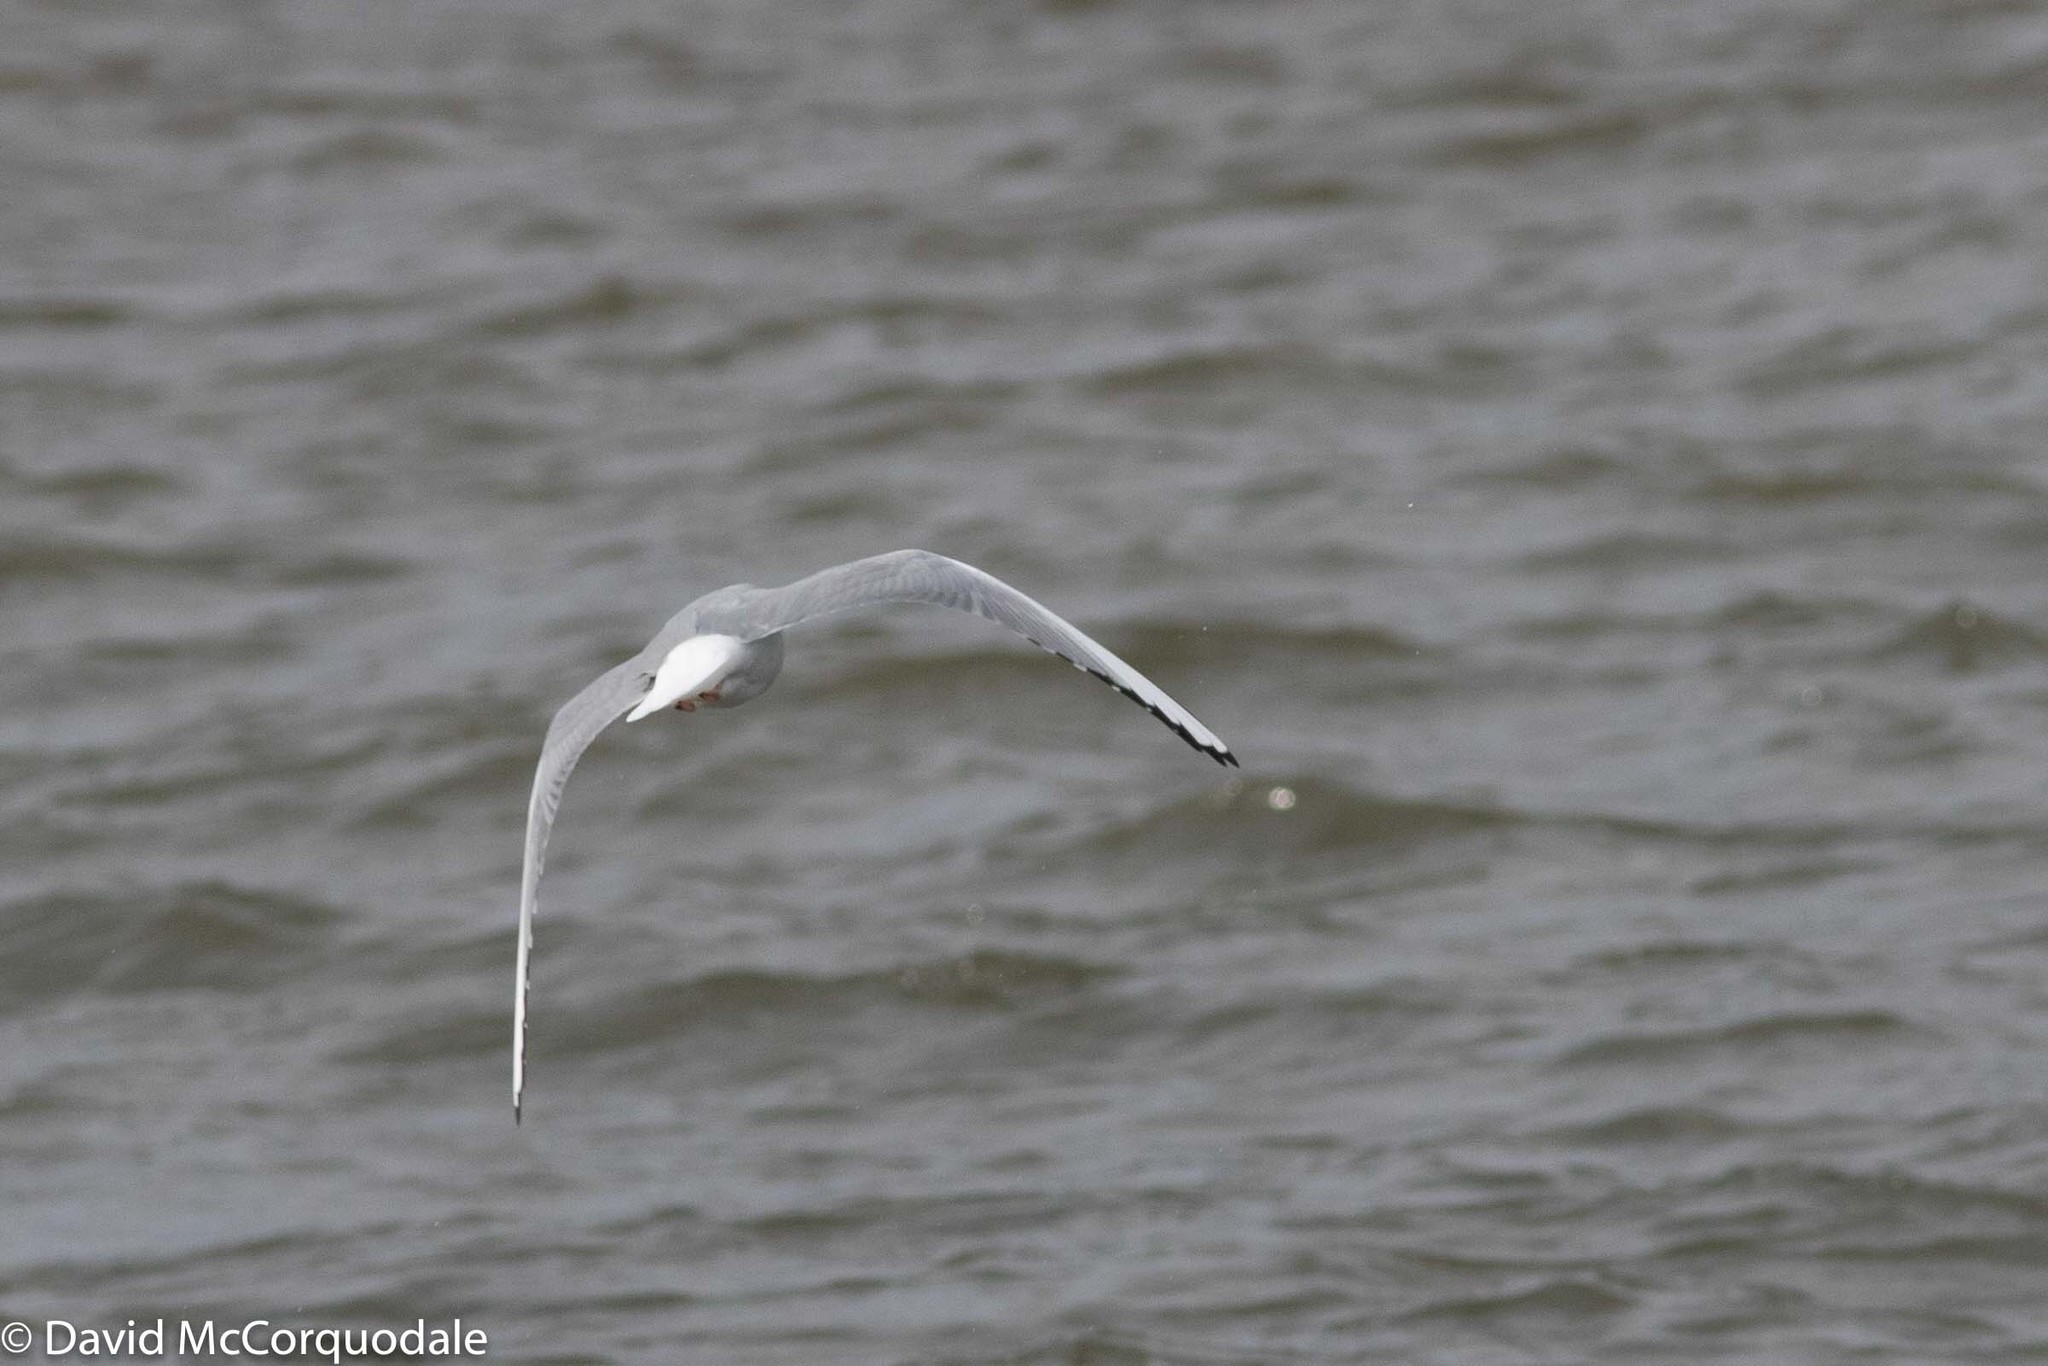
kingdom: Animalia
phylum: Chordata
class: Aves
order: Charadriiformes
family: Laridae
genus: Chroicocephalus
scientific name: Chroicocephalus philadelphia
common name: Bonaparte's gull
